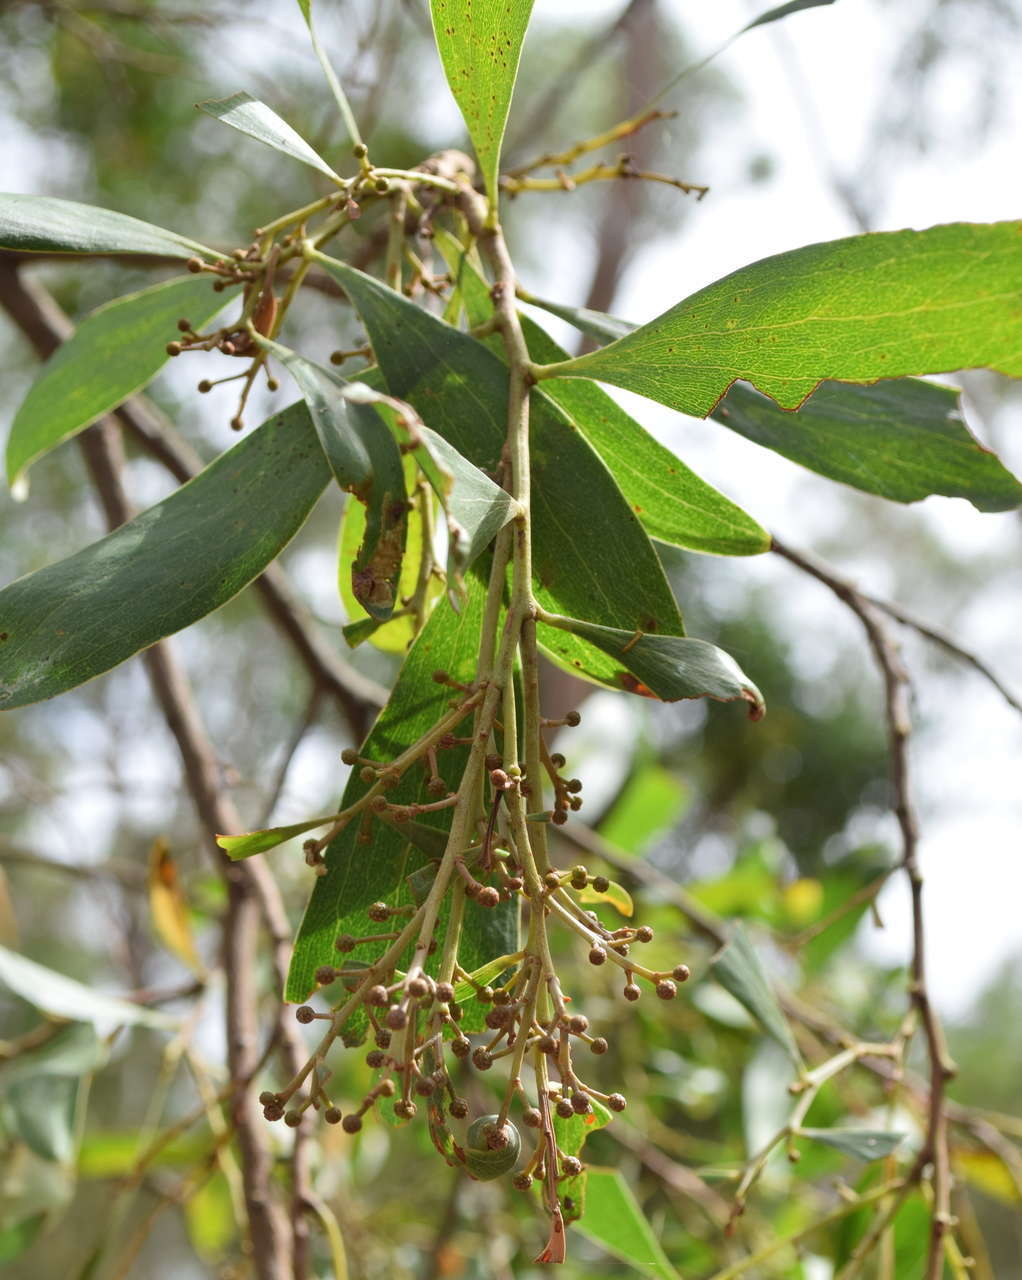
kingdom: Plantae
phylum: Tracheophyta
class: Magnoliopsida
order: Fabales
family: Fabaceae
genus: Acacia
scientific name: Acacia melanoxylon
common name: Blackwood
